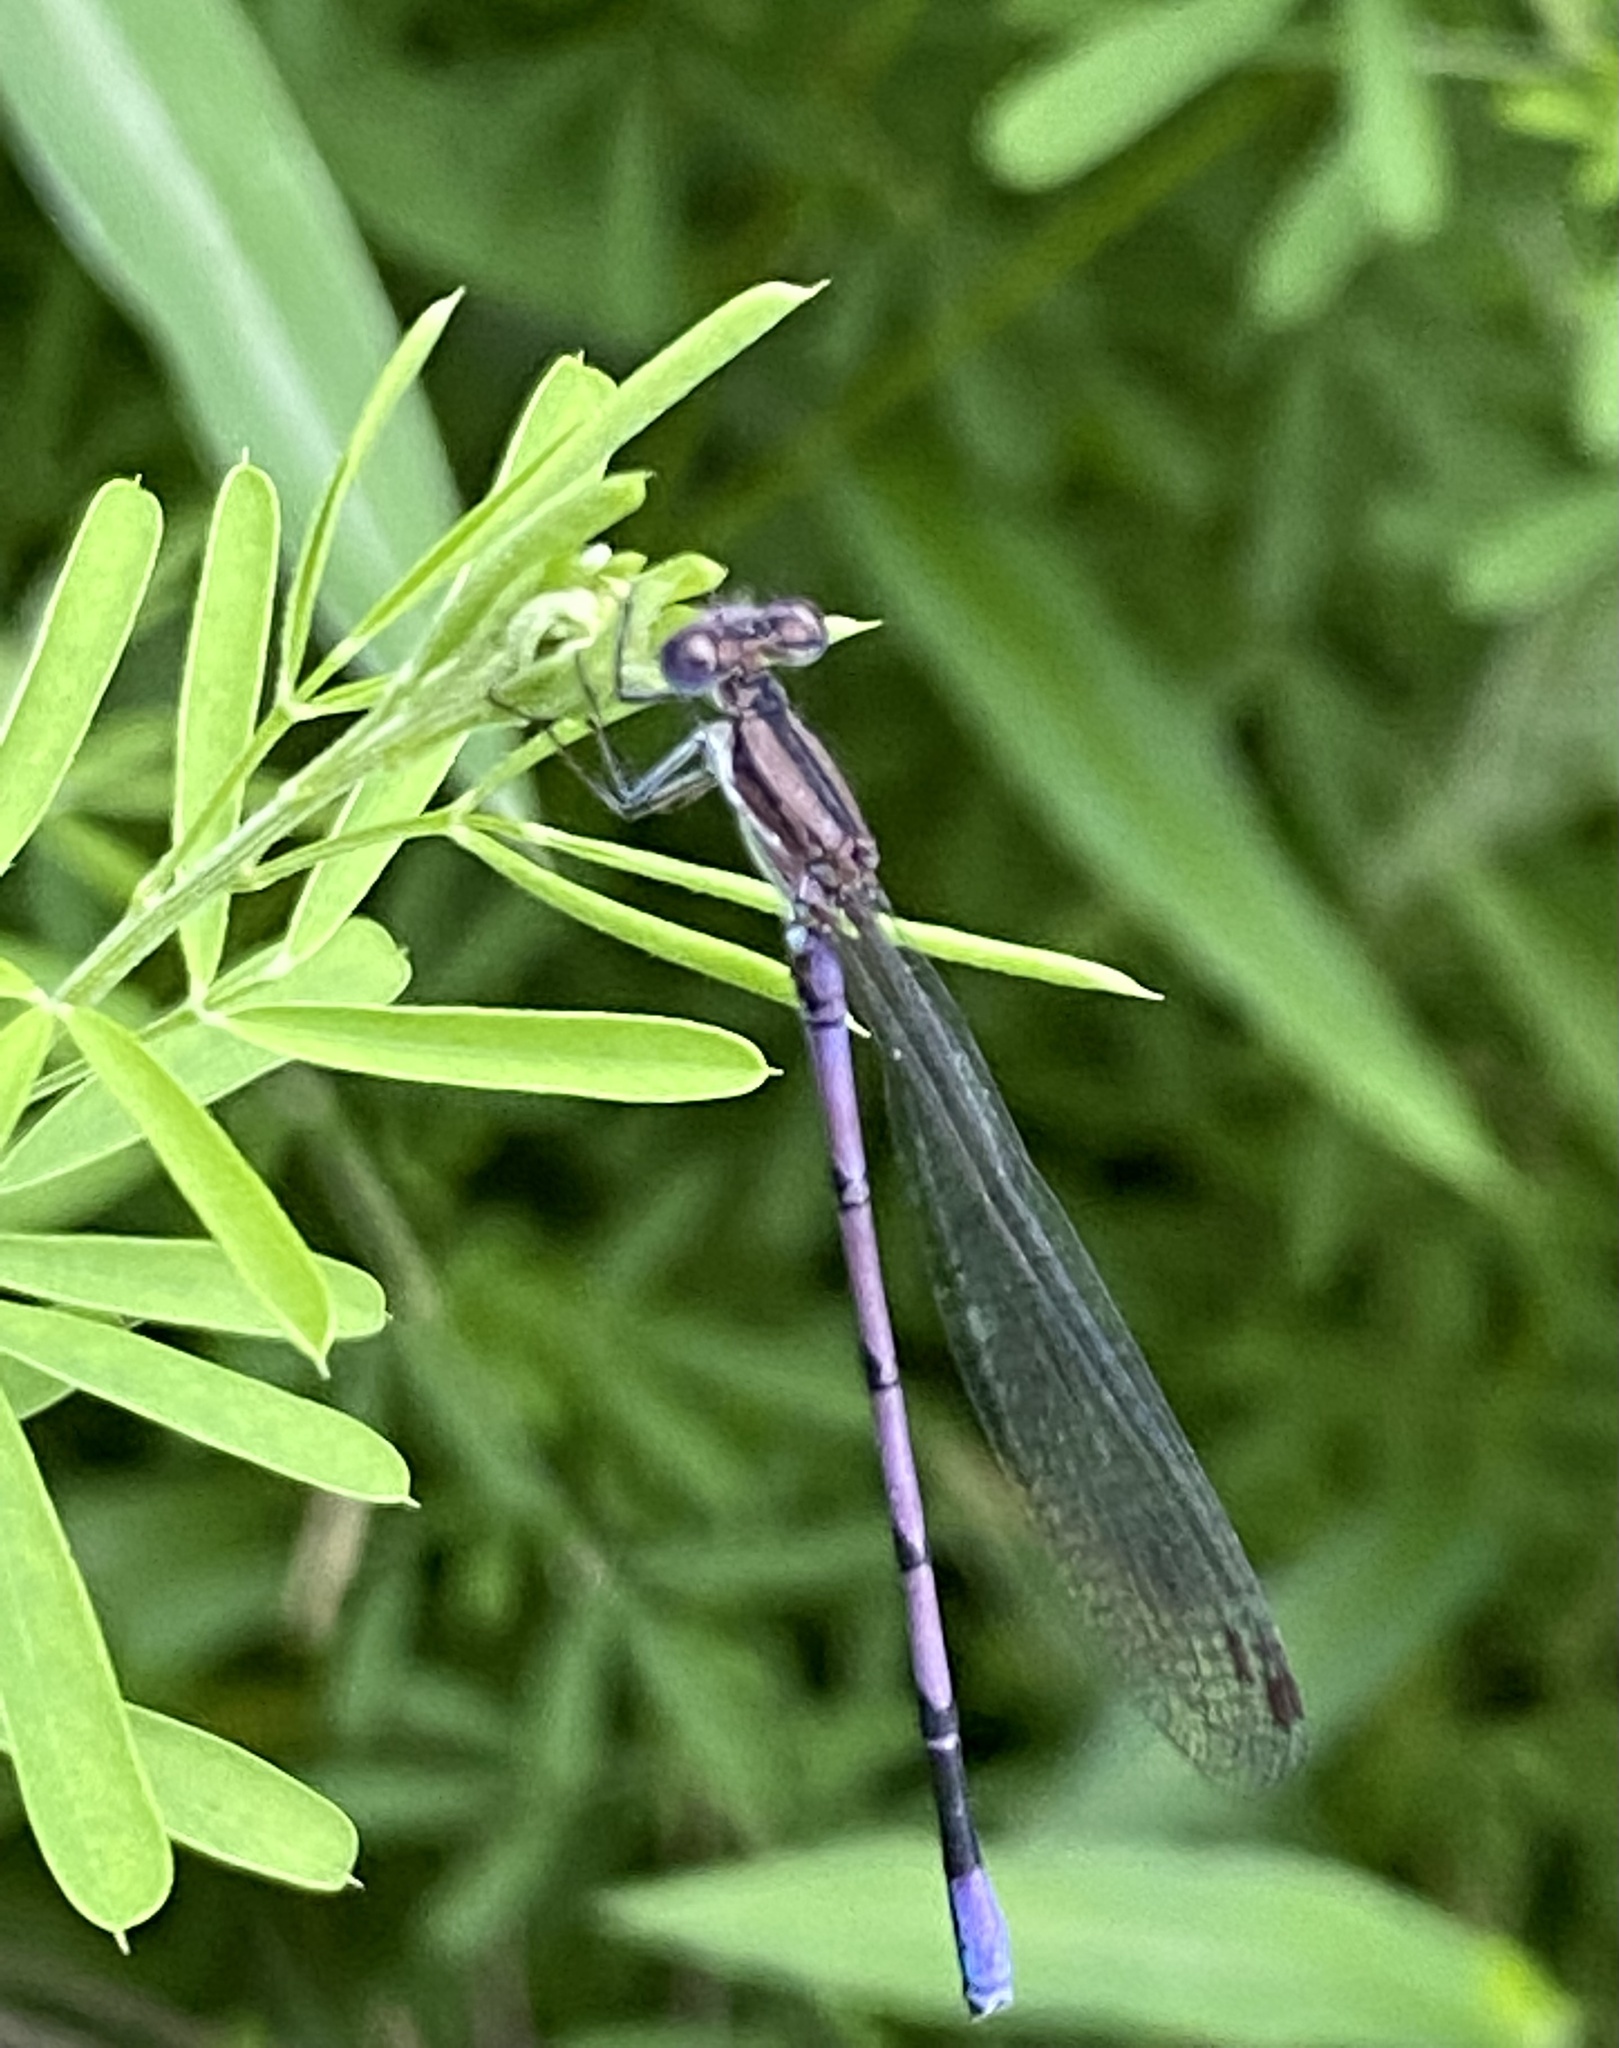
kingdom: Animalia
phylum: Arthropoda
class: Insecta
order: Odonata
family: Coenagrionidae
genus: Argia
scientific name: Argia fumipennis
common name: Variable dancer
